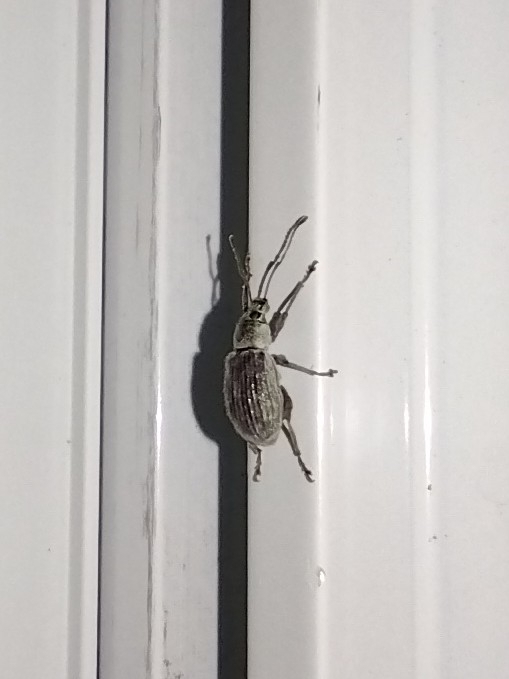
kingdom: Animalia
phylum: Arthropoda
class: Insecta
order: Coleoptera
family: Curculionidae
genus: Cyrtepistomus
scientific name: Cyrtepistomus castaneus
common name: Weevil
